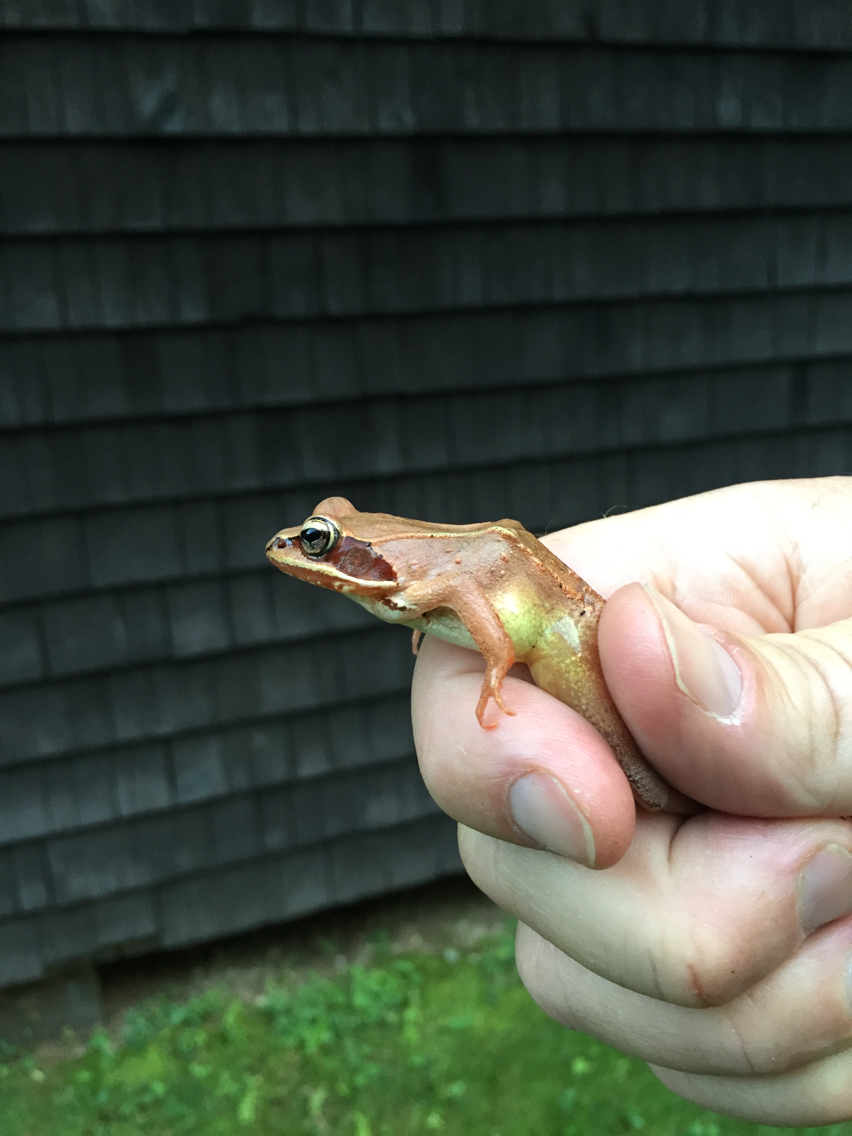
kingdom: Animalia
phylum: Chordata
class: Amphibia
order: Anura
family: Ranidae
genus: Lithobates
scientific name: Lithobates sylvaticus
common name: Wood frog
